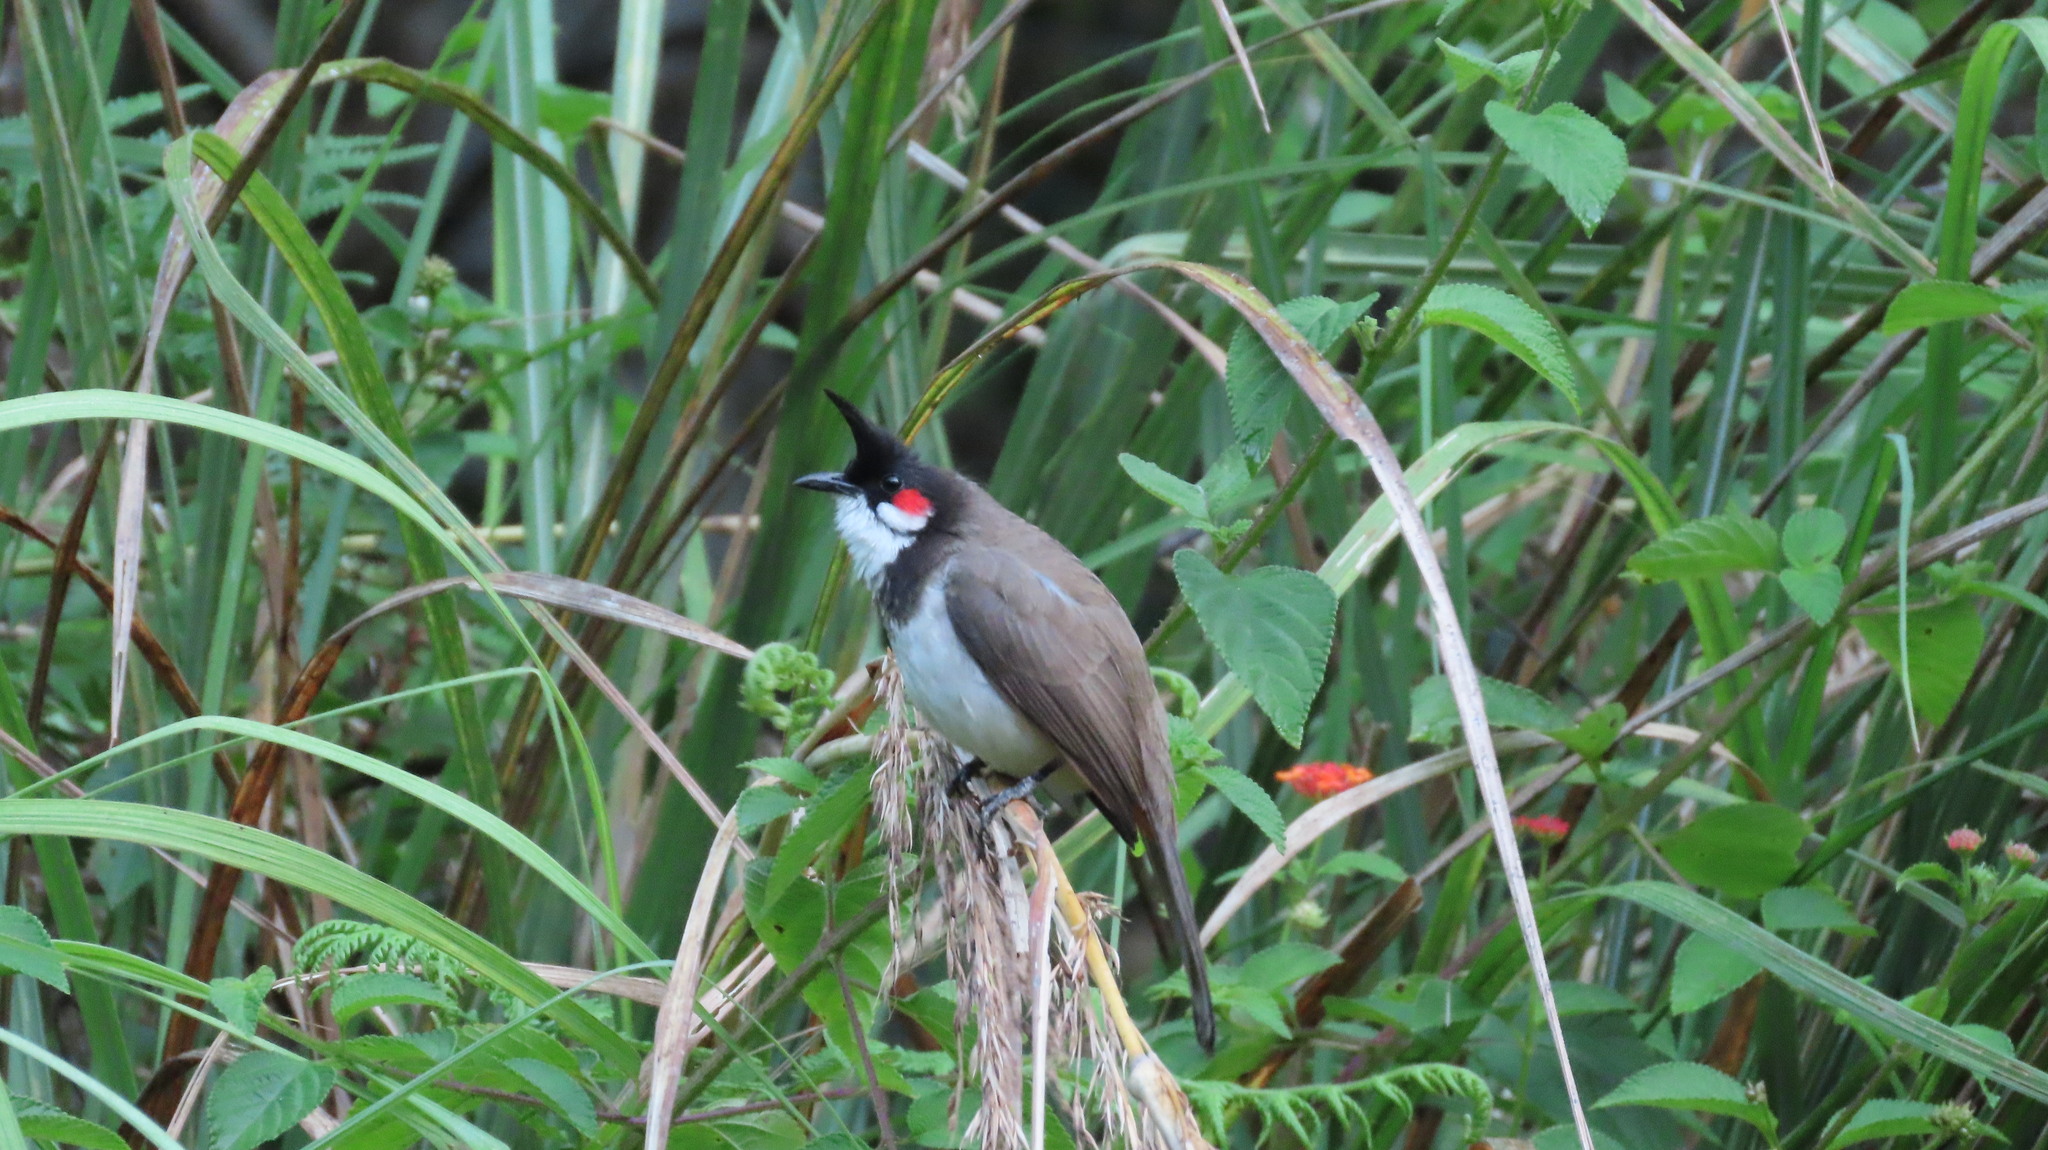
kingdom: Animalia
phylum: Chordata
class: Aves
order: Passeriformes
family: Pycnonotidae
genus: Pycnonotus
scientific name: Pycnonotus jocosus
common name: Red-whiskered bulbul
